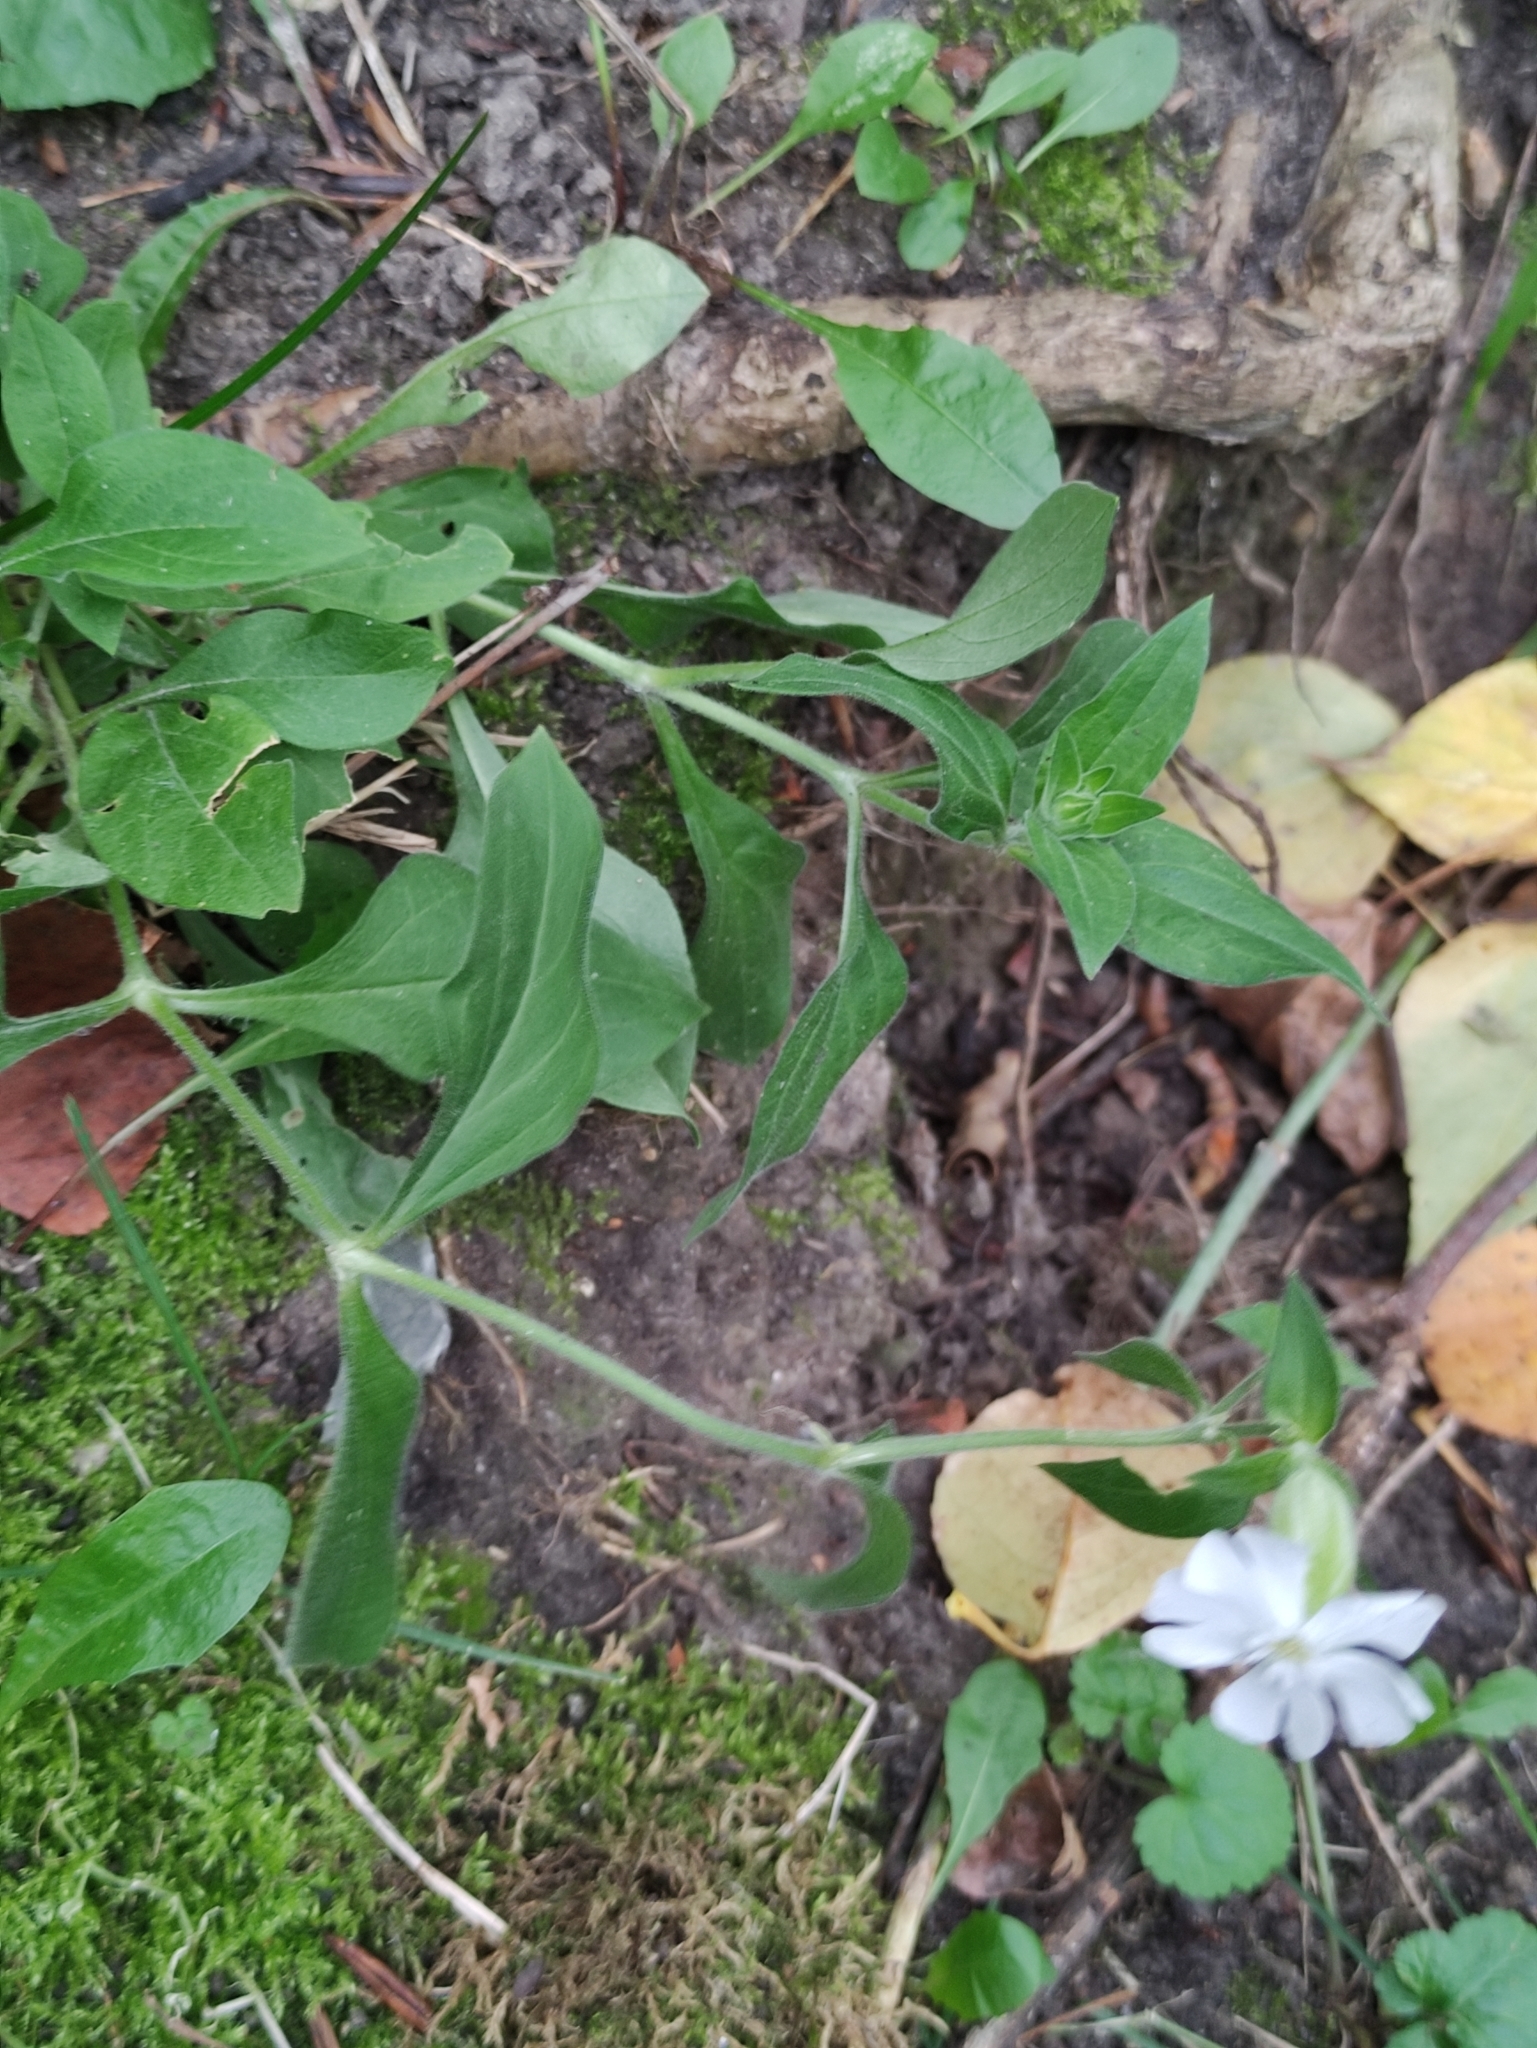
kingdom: Plantae
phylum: Tracheophyta
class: Magnoliopsida
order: Caryophyllales
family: Caryophyllaceae
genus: Silene
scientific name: Silene latifolia
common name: White campion
